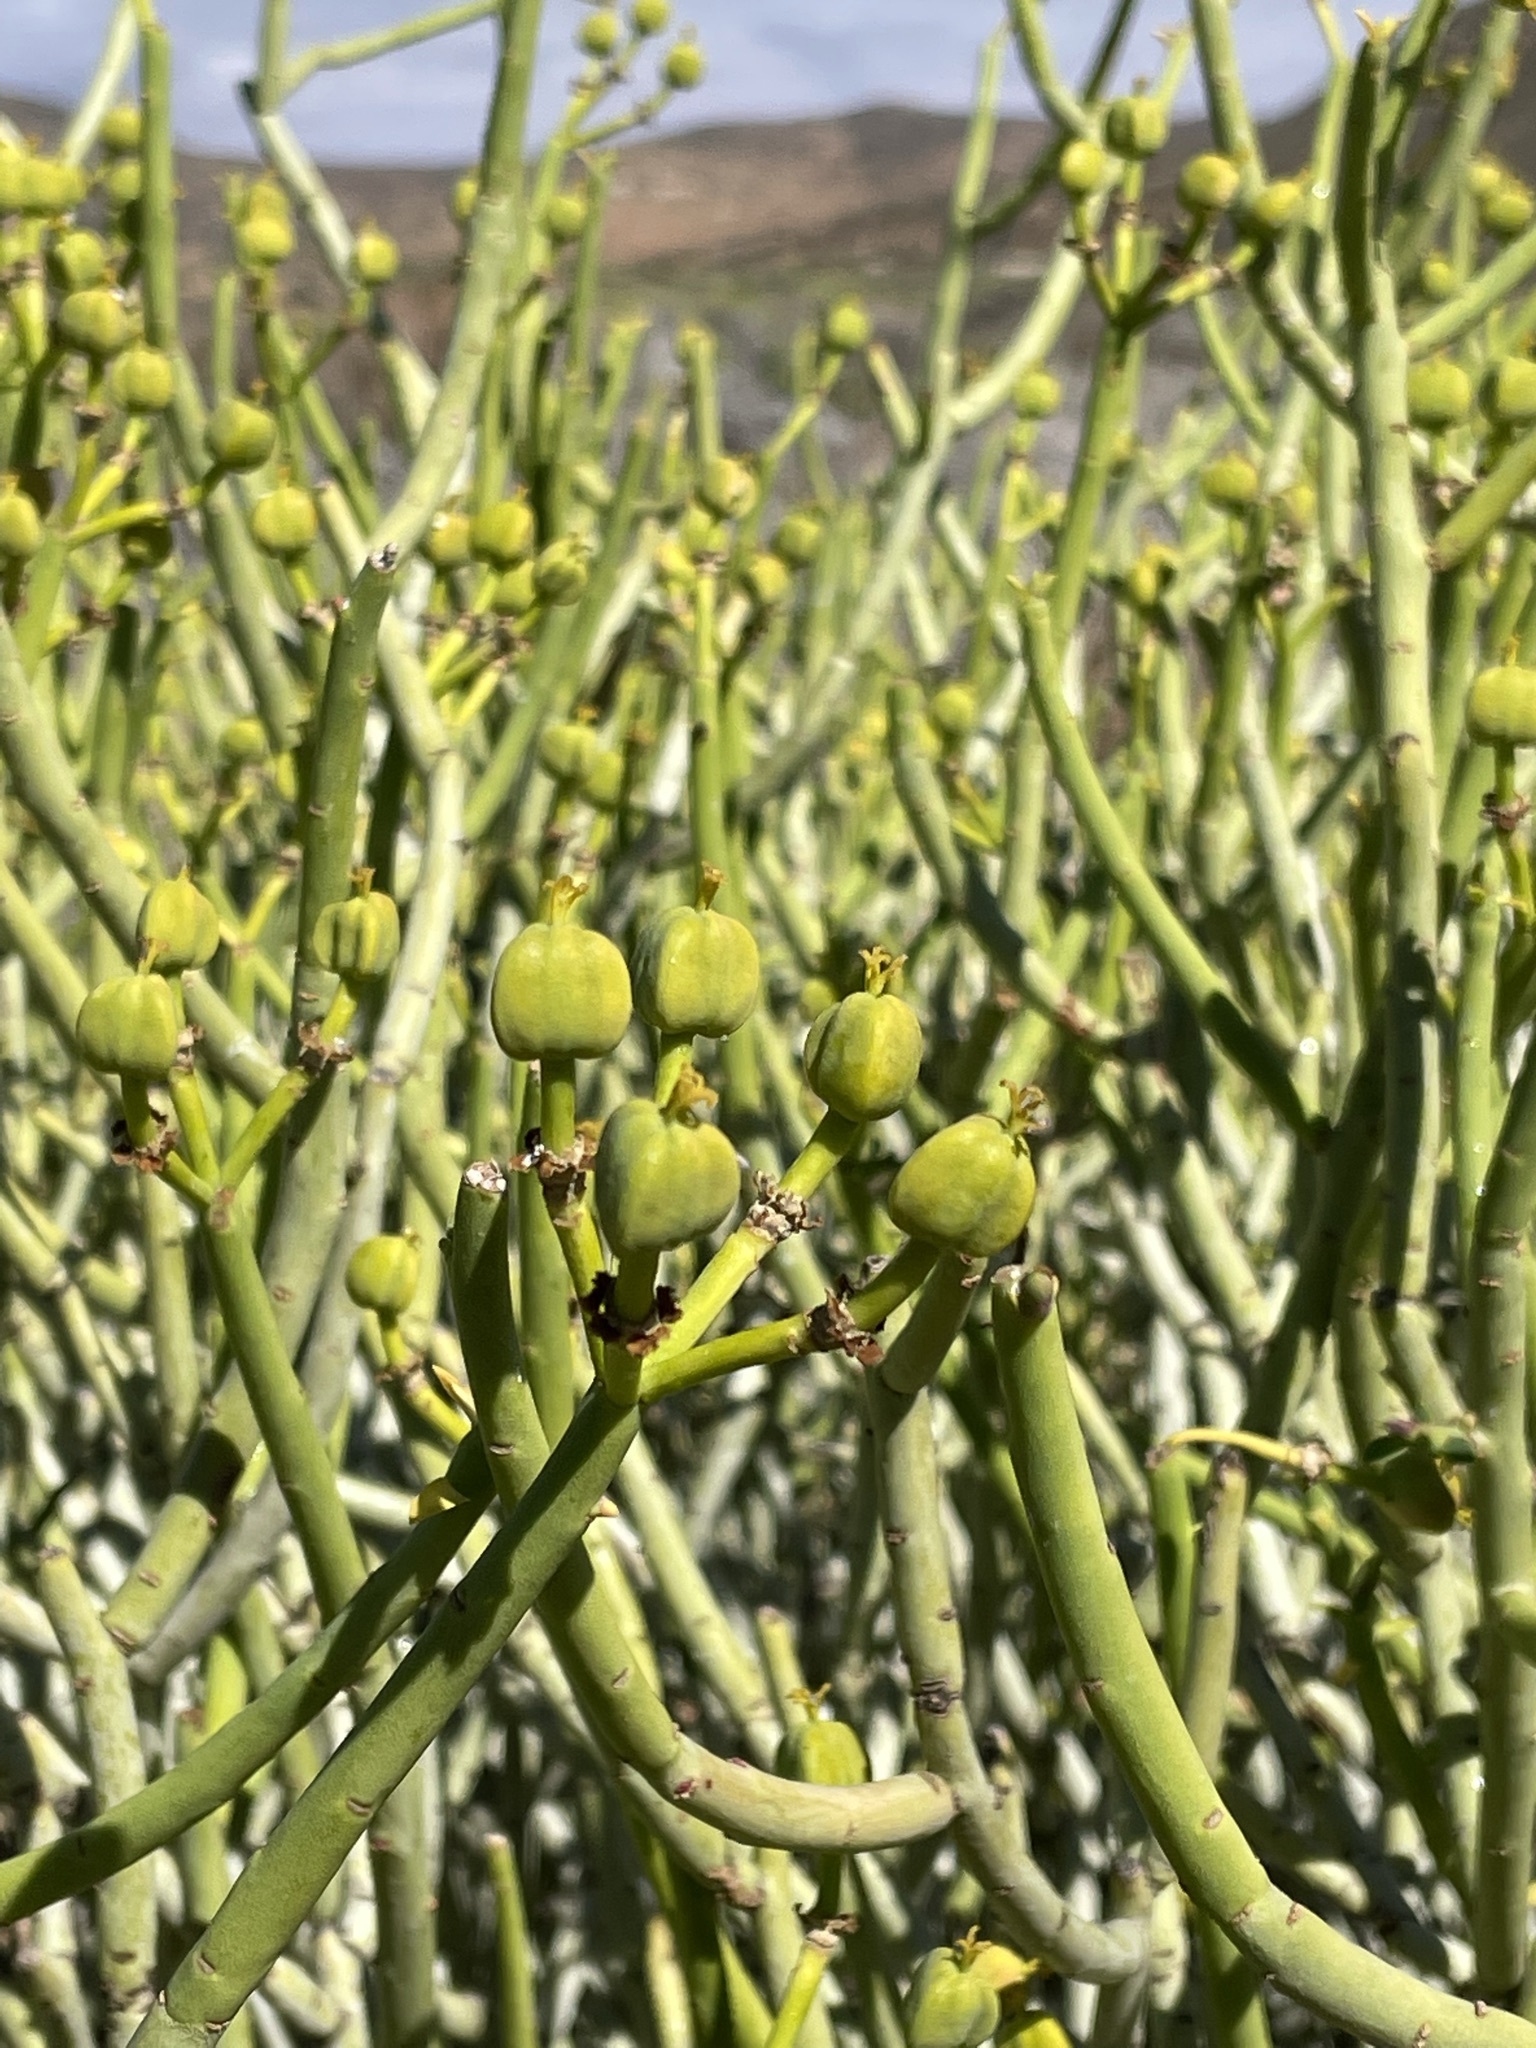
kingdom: Plantae
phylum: Tracheophyta
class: Magnoliopsida
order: Malpighiales
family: Euphorbiaceae
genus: Euphorbia
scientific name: Euphorbia mauritanica
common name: Jackal's-food
